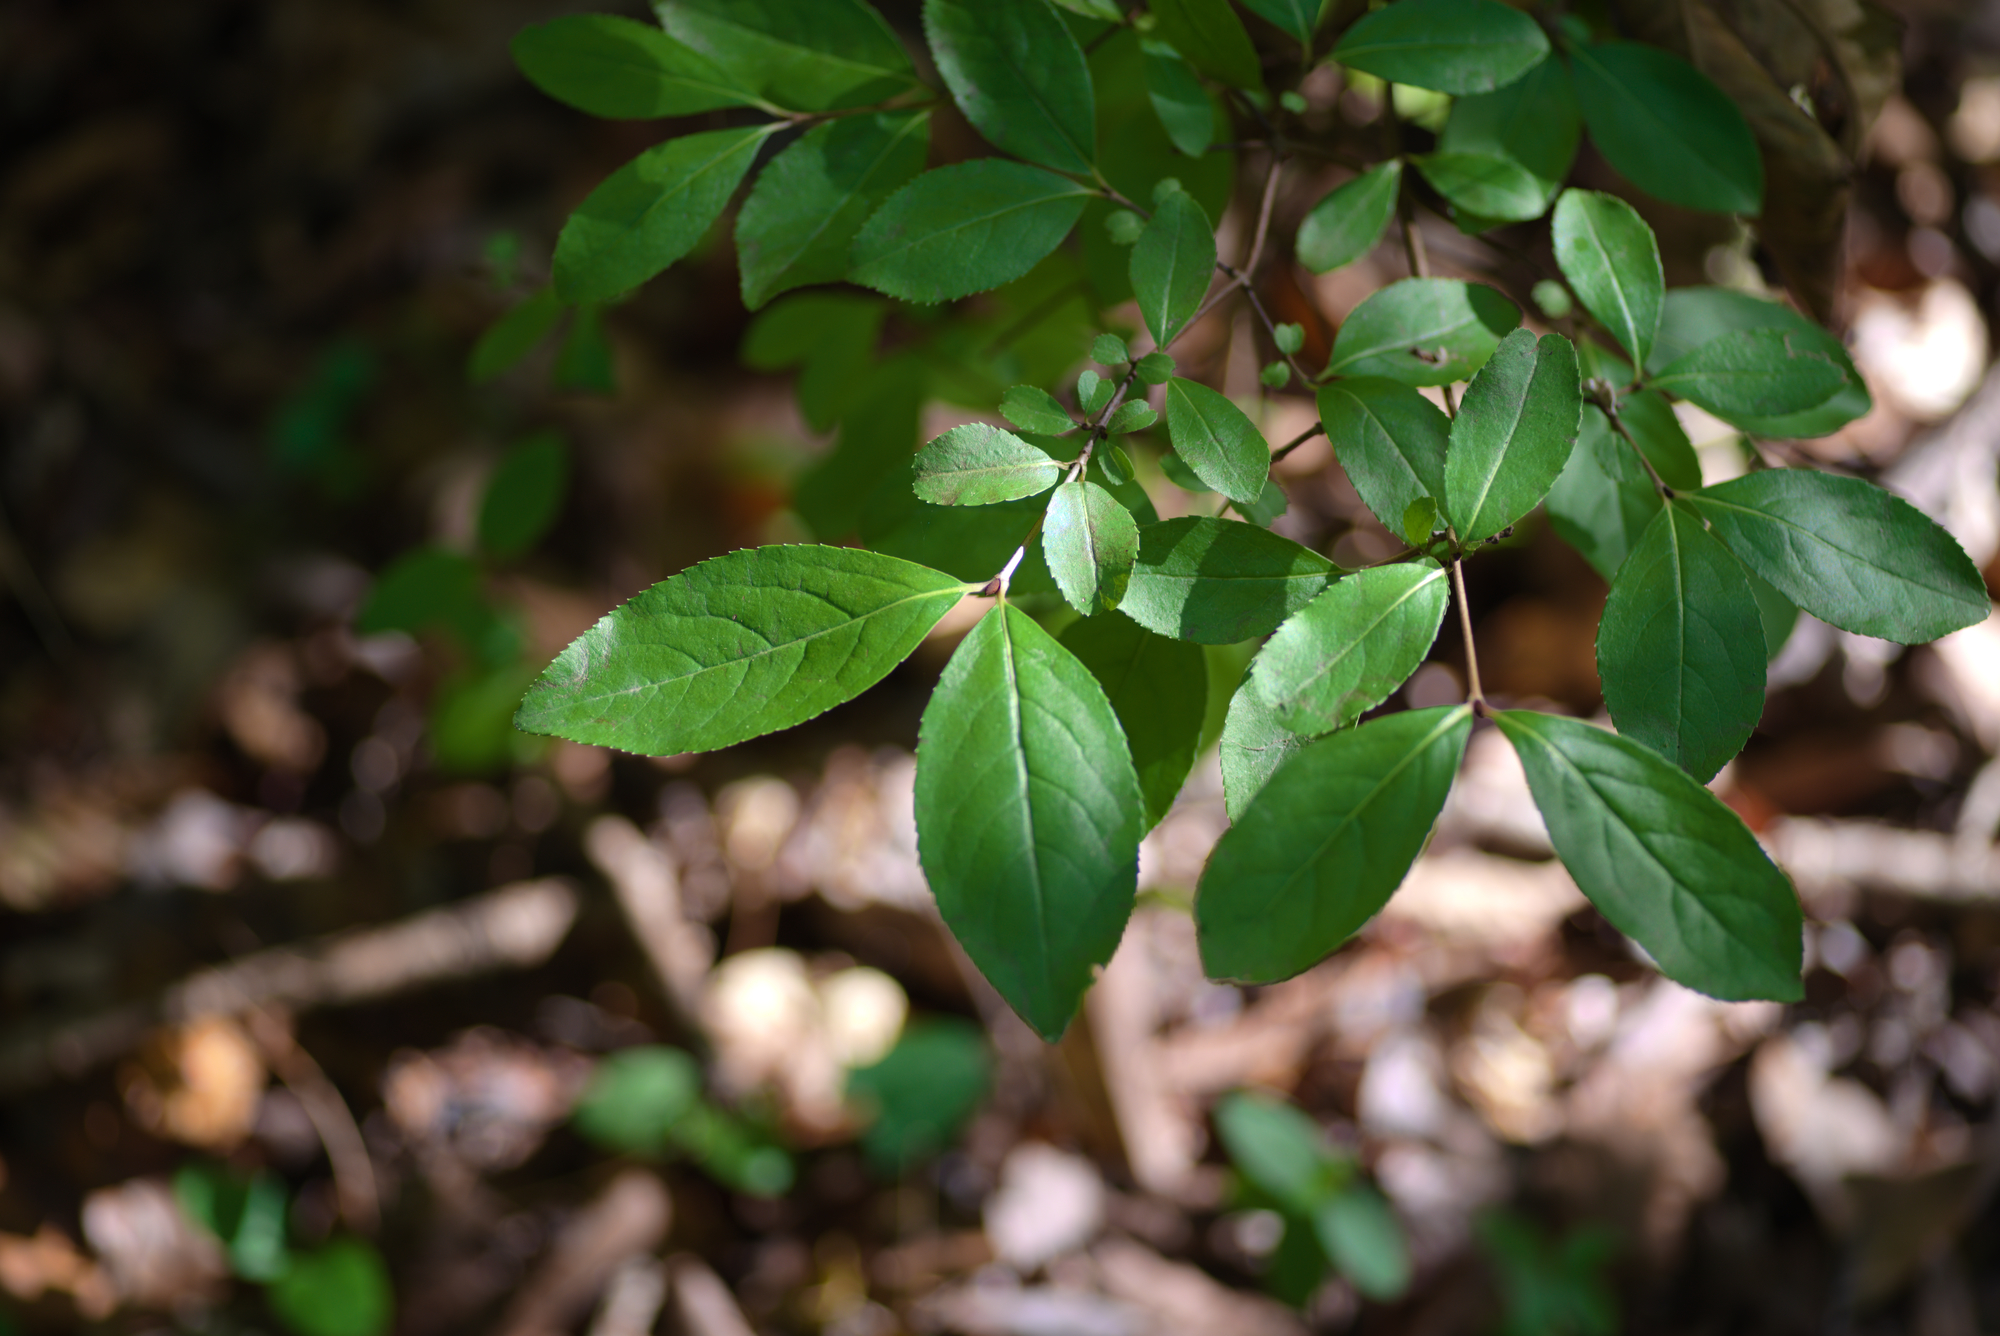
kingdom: Plantae
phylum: Tracheophyta
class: Magnoliopsida
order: Dipsacales
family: Viburnaceae
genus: Viburnum
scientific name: Viburnum rufidulum
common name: Blue haw
